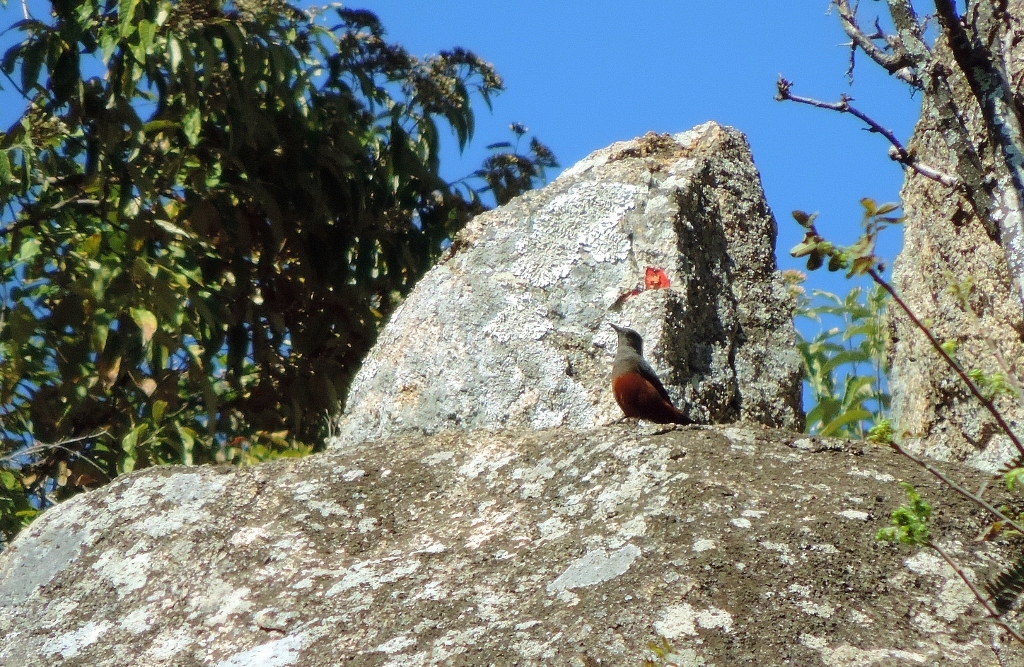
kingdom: Animalia
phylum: Chordata
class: Aves
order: Passeriformes
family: Muscicapidae
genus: Thamnolaea
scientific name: Thamnolaea cinnamomeiventris
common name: Mocking cliff chat
